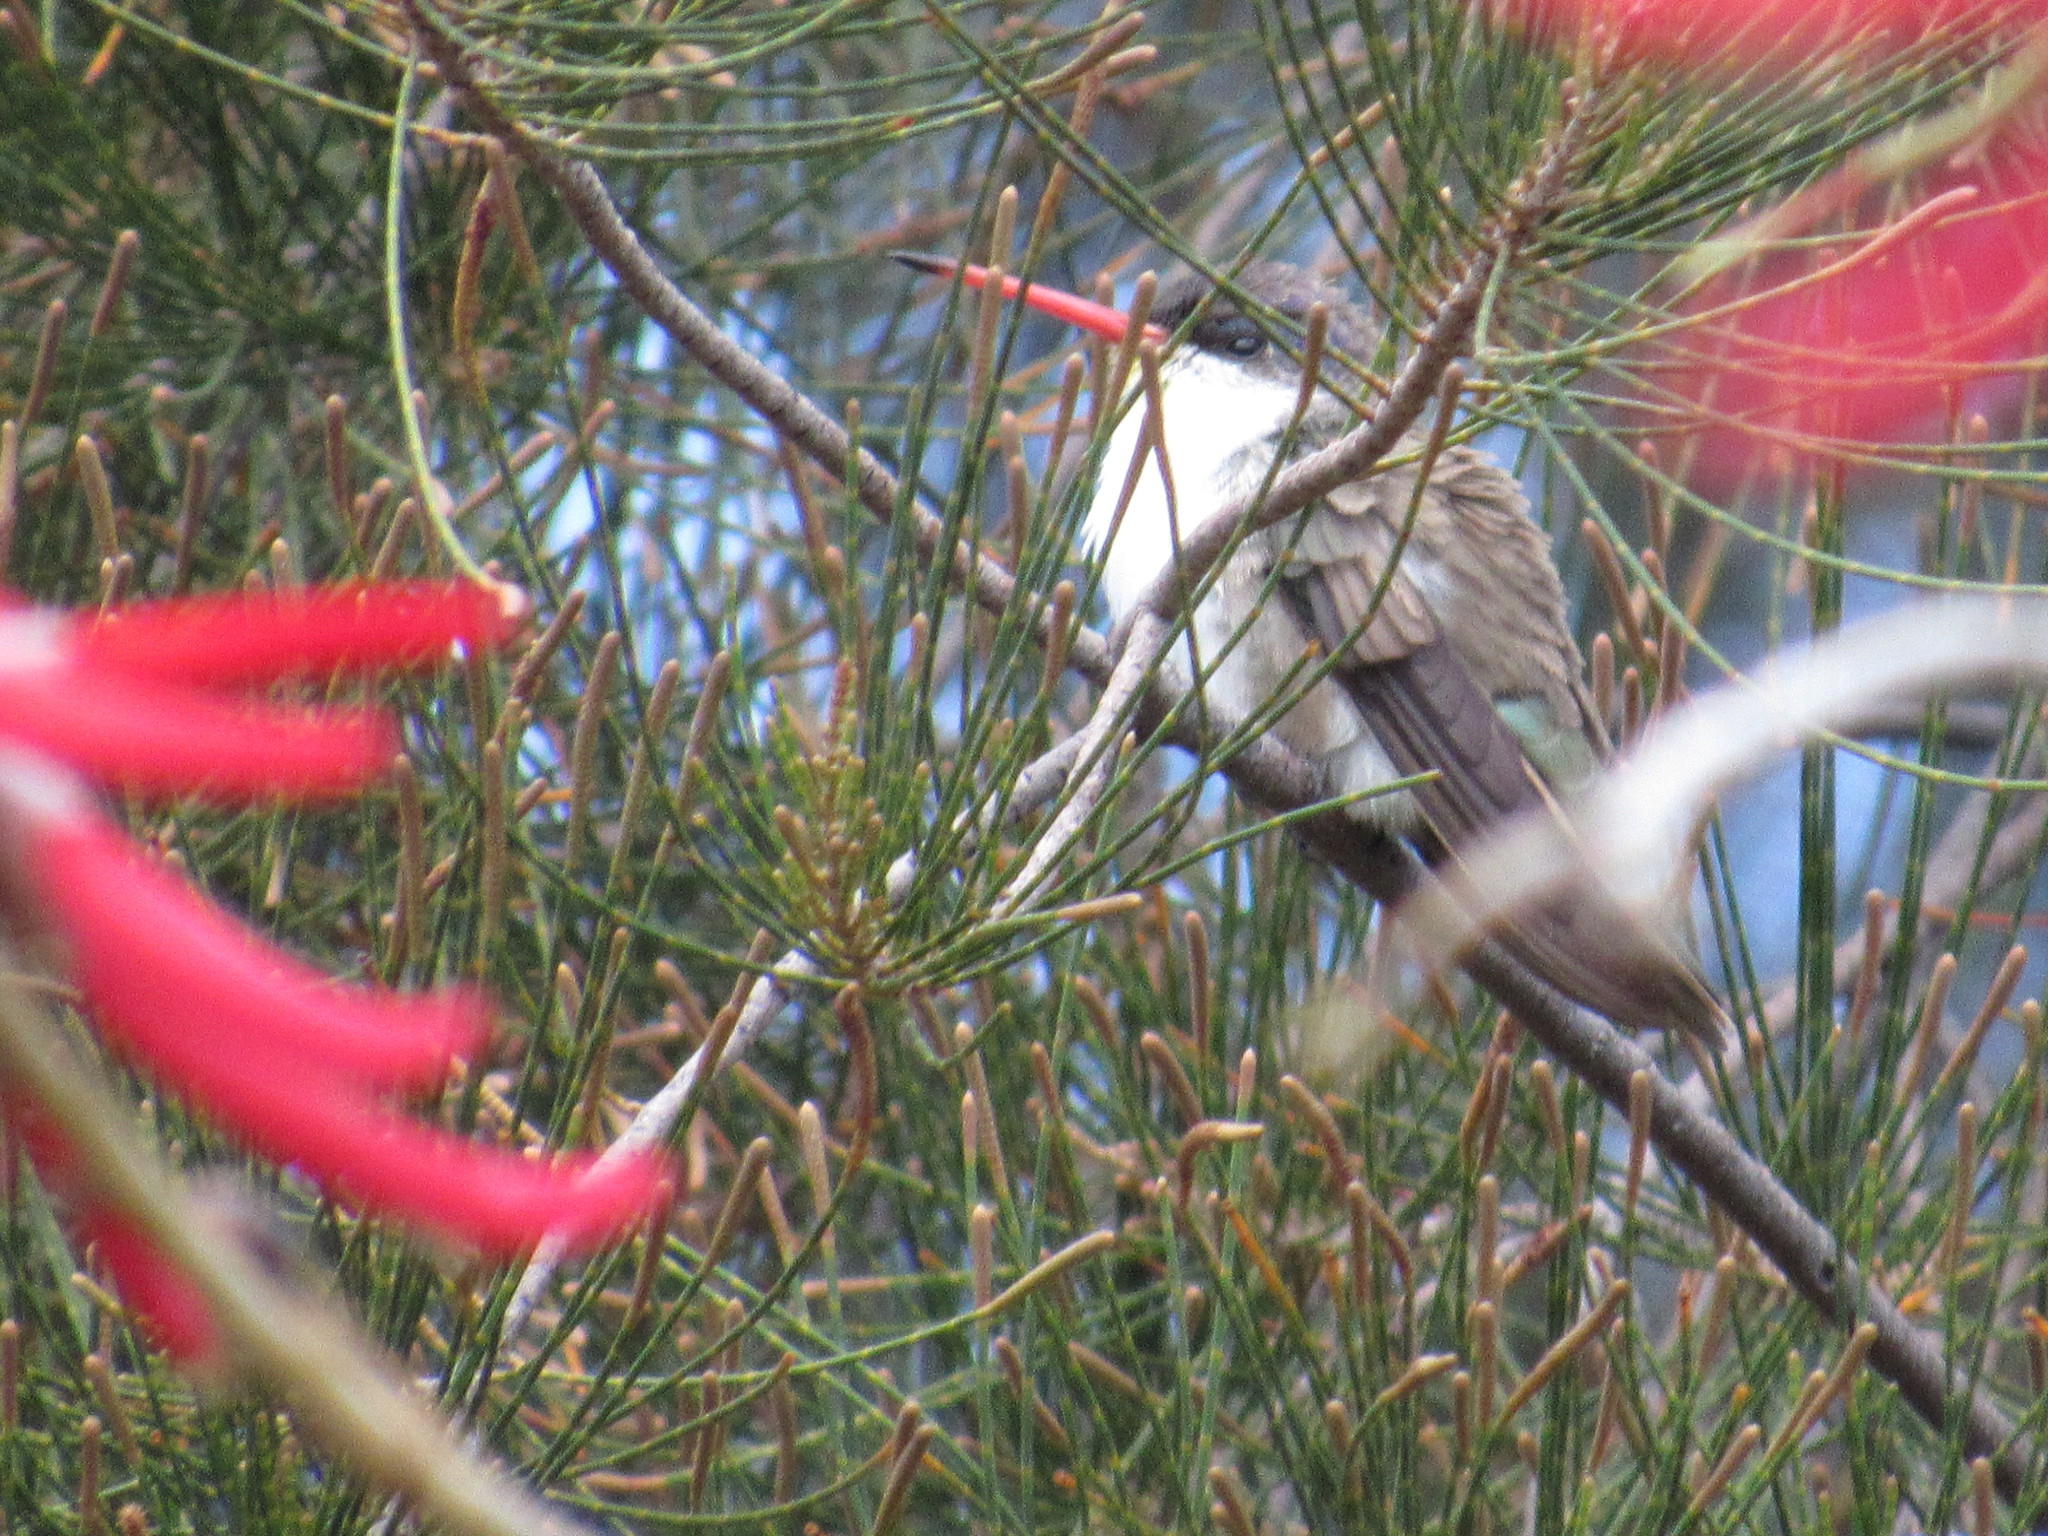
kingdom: Animalia
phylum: Chordata
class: Aves
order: Apodiformes
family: Trochilidae
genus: Leucolia
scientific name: Leucolia violiceps
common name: Violet-crowned hummingbird
